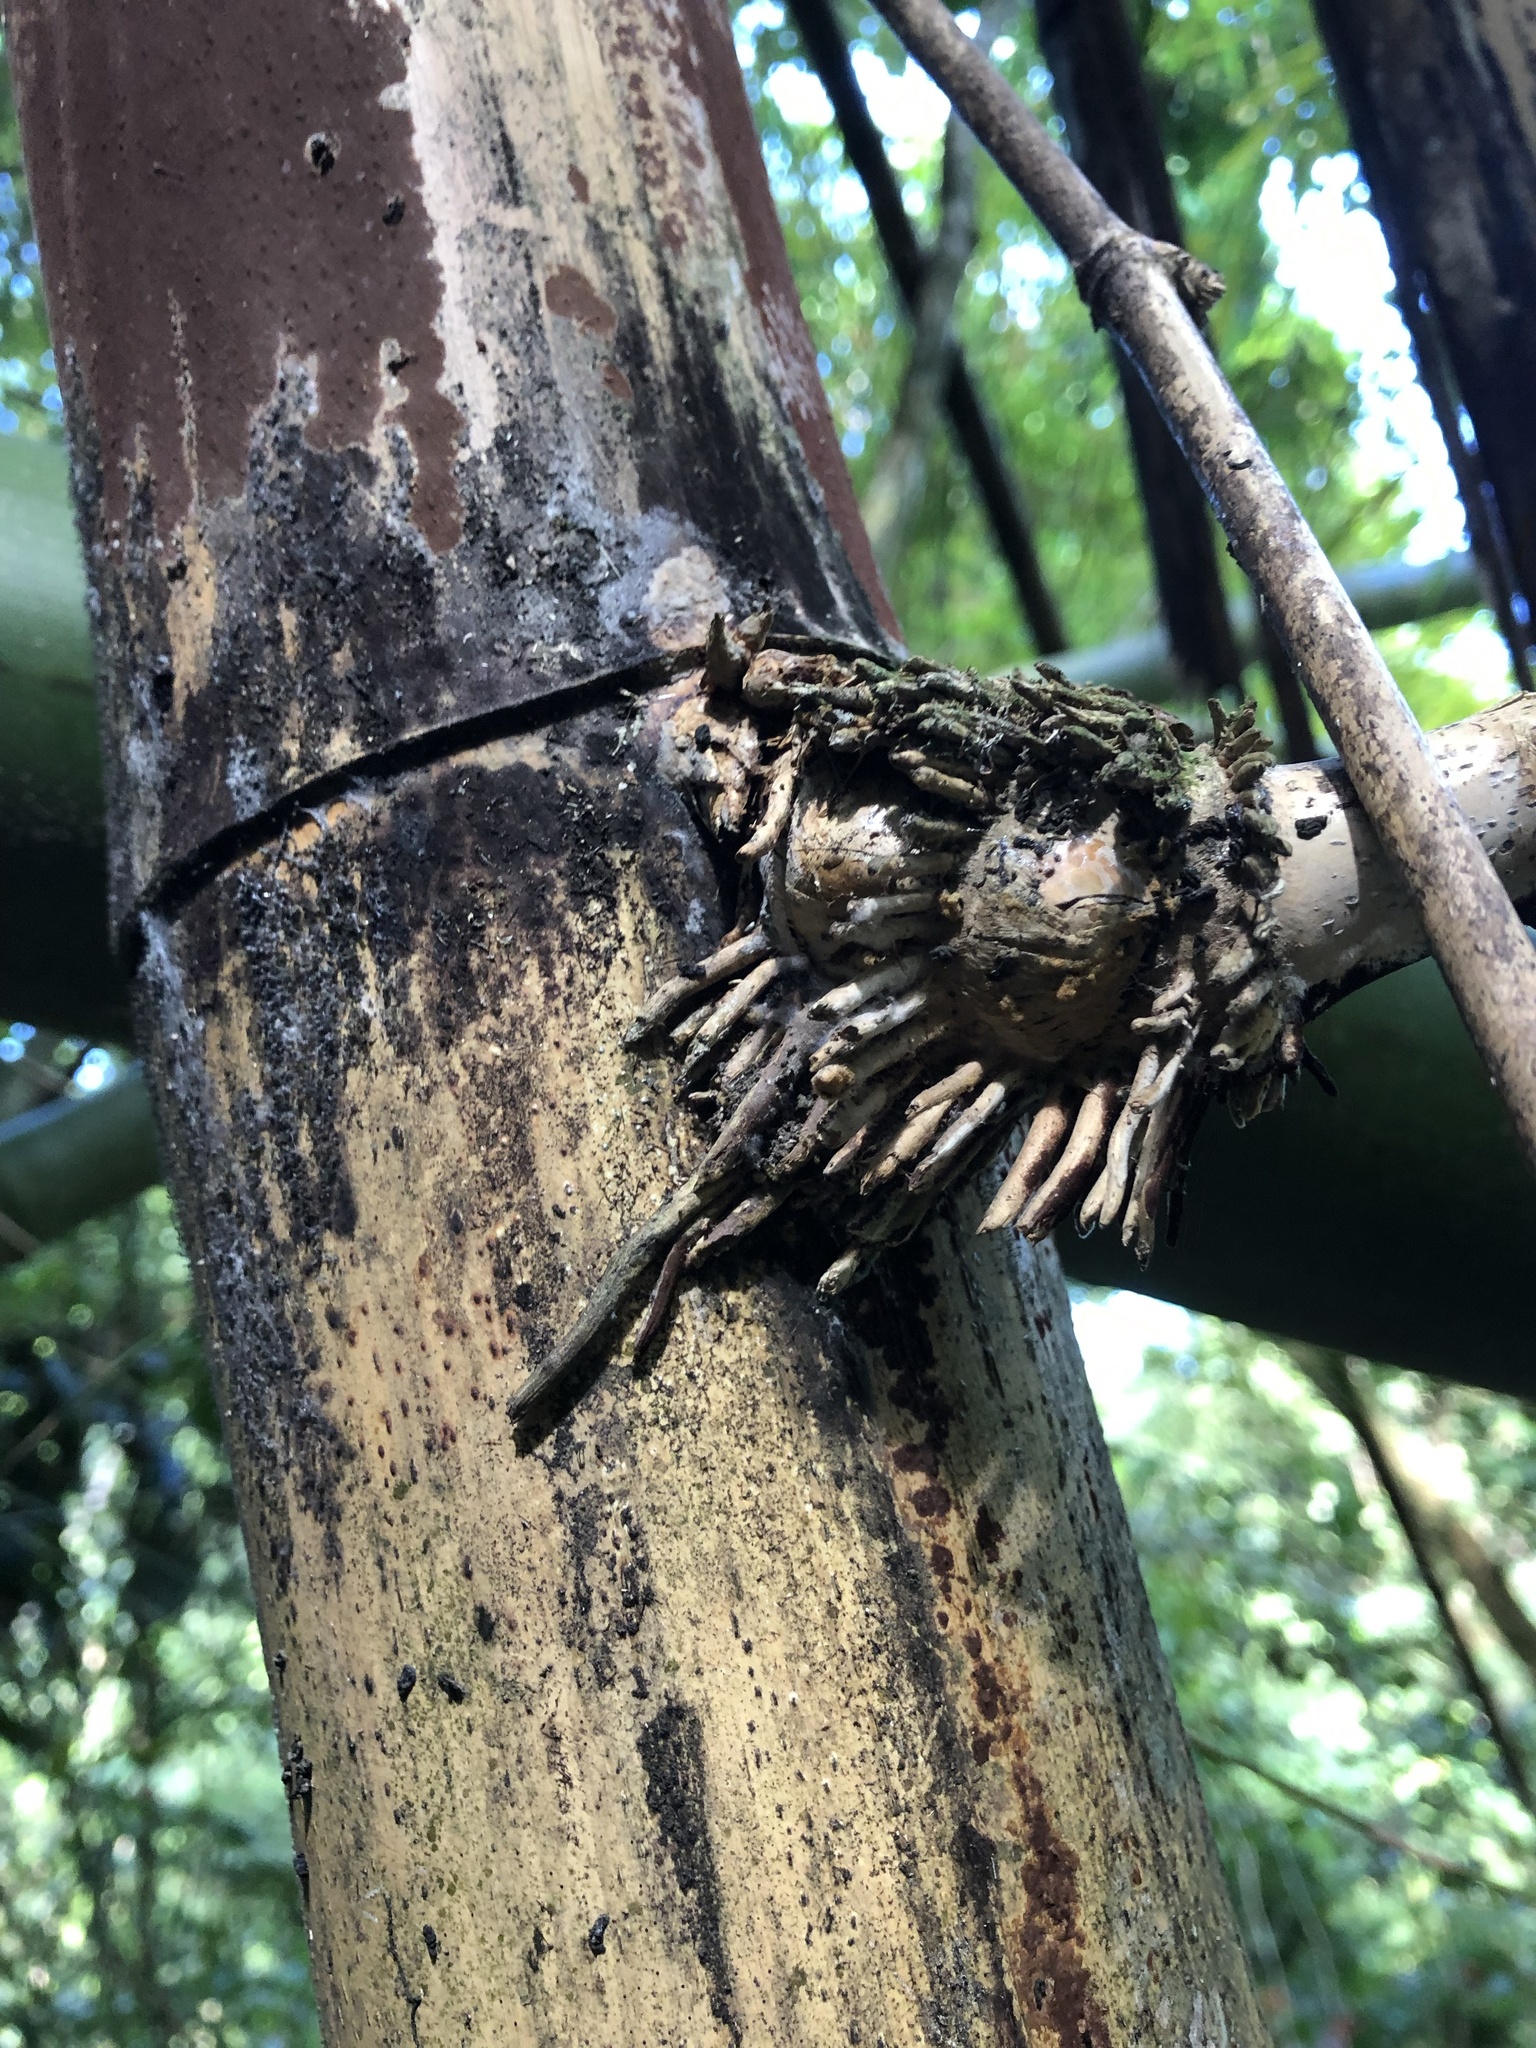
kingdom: Plantae
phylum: Tracheophyta
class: Liliopsida
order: Poales
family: Poaceae
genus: Bambusa
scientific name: Bambusa vulgaris
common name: Common bamboo
